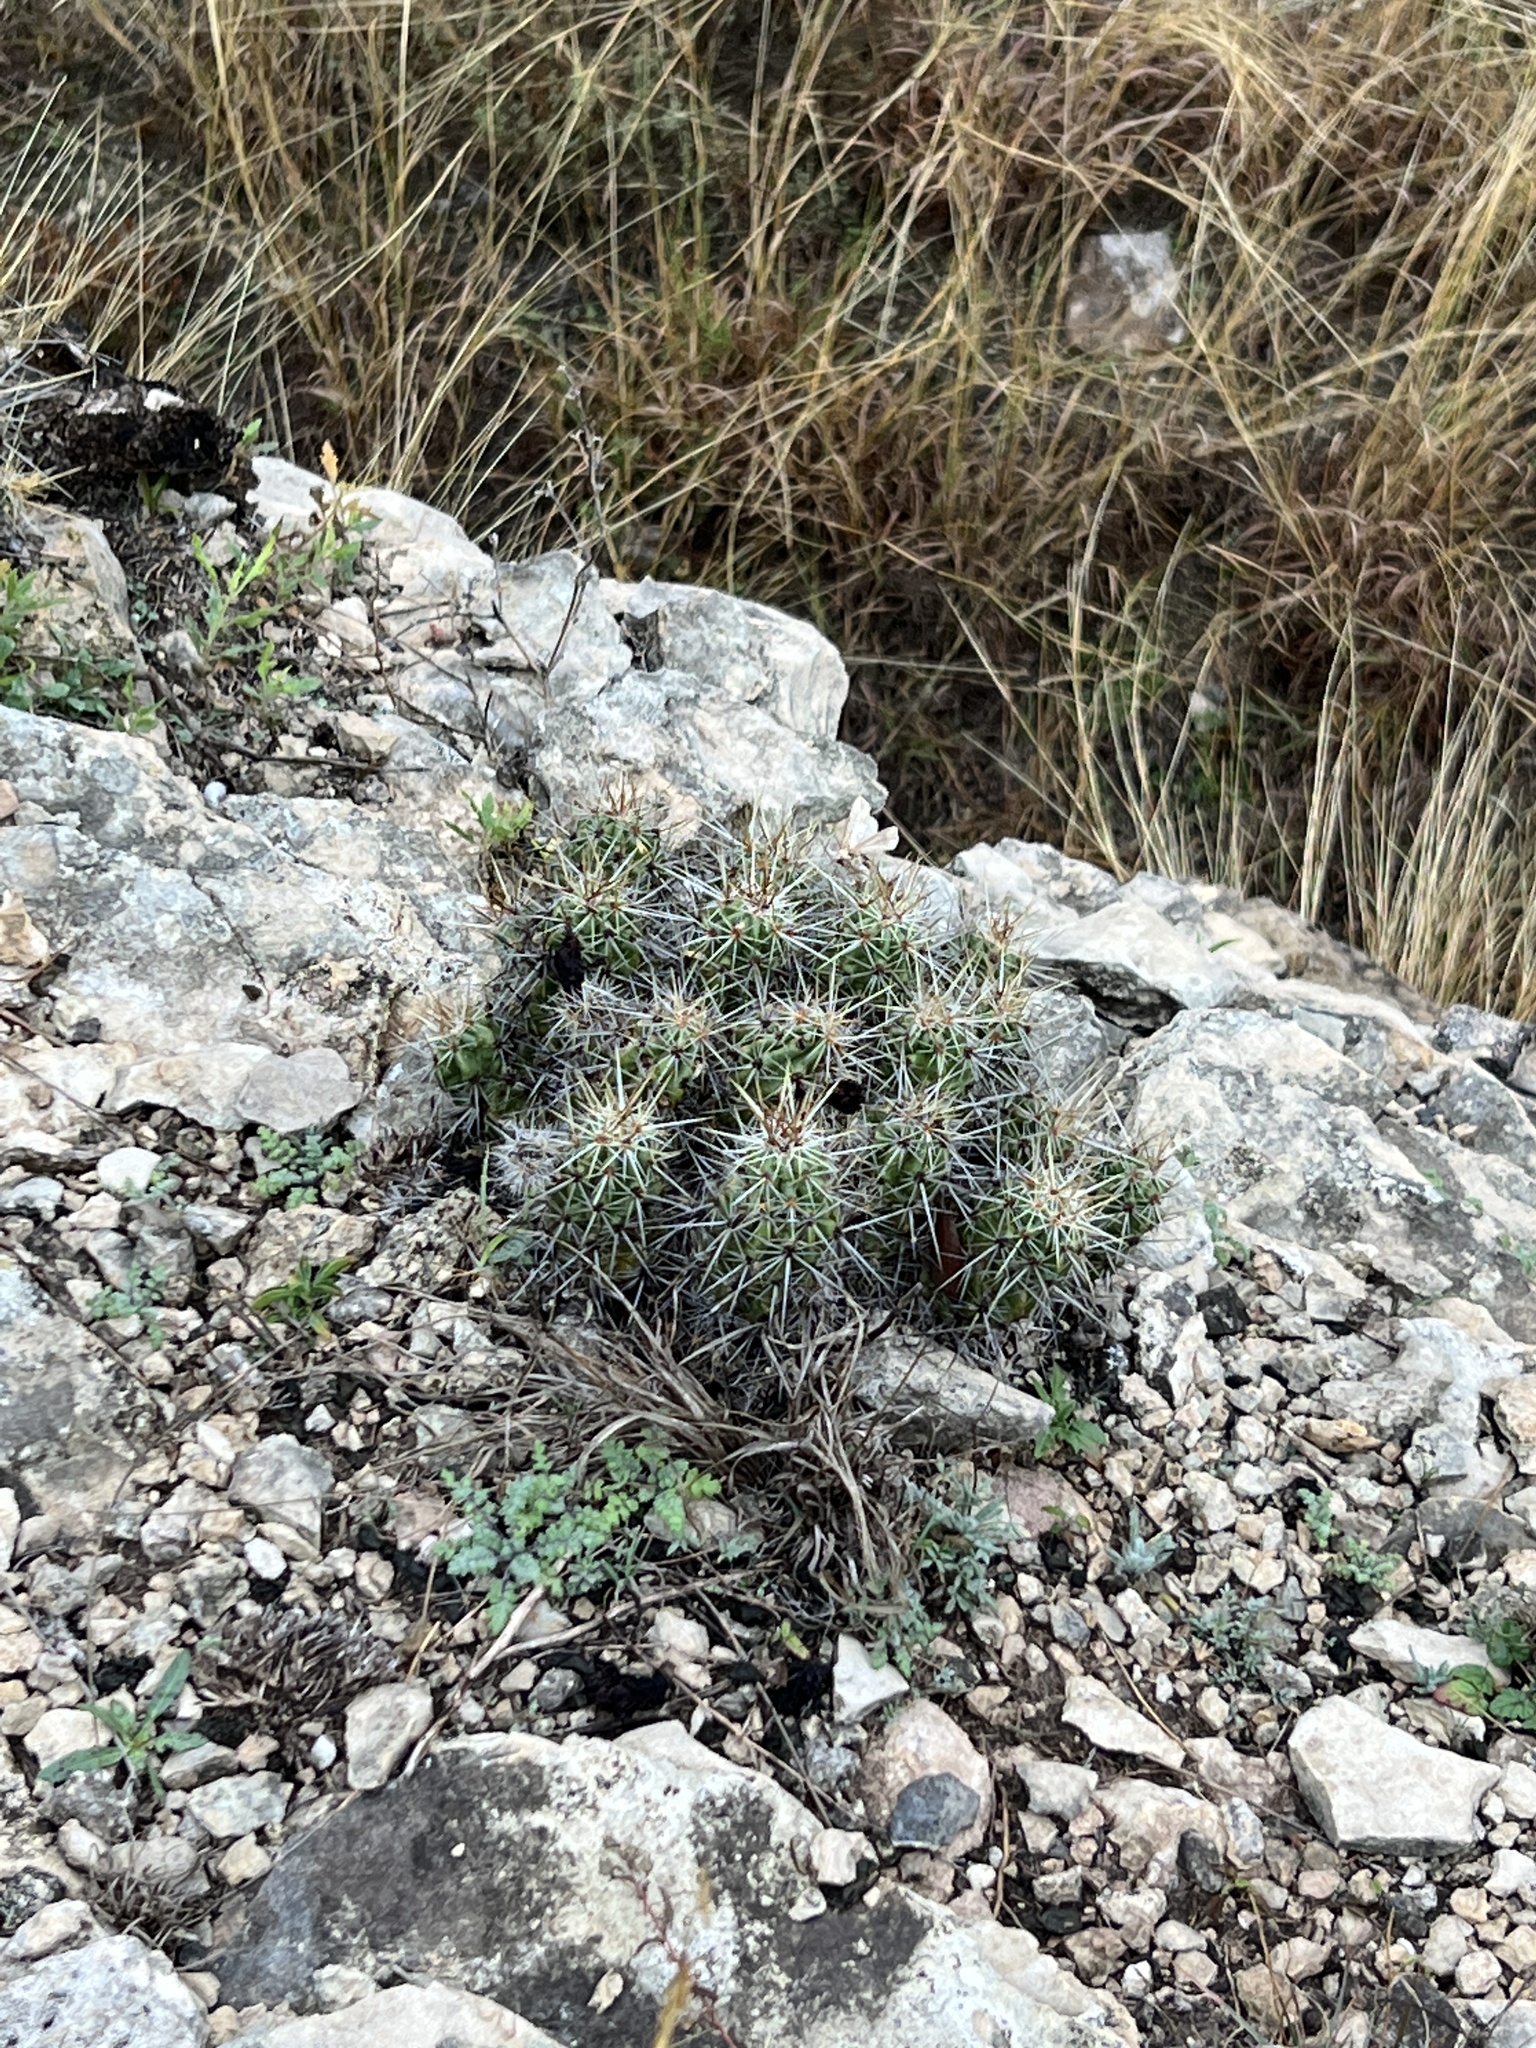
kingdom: Plantae
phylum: Tracheophyta
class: Magnoliopsida
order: Caryophyllales
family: Cactaceae
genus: Echinocereus
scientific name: Echinocereus enneacanthus
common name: Pitaya
